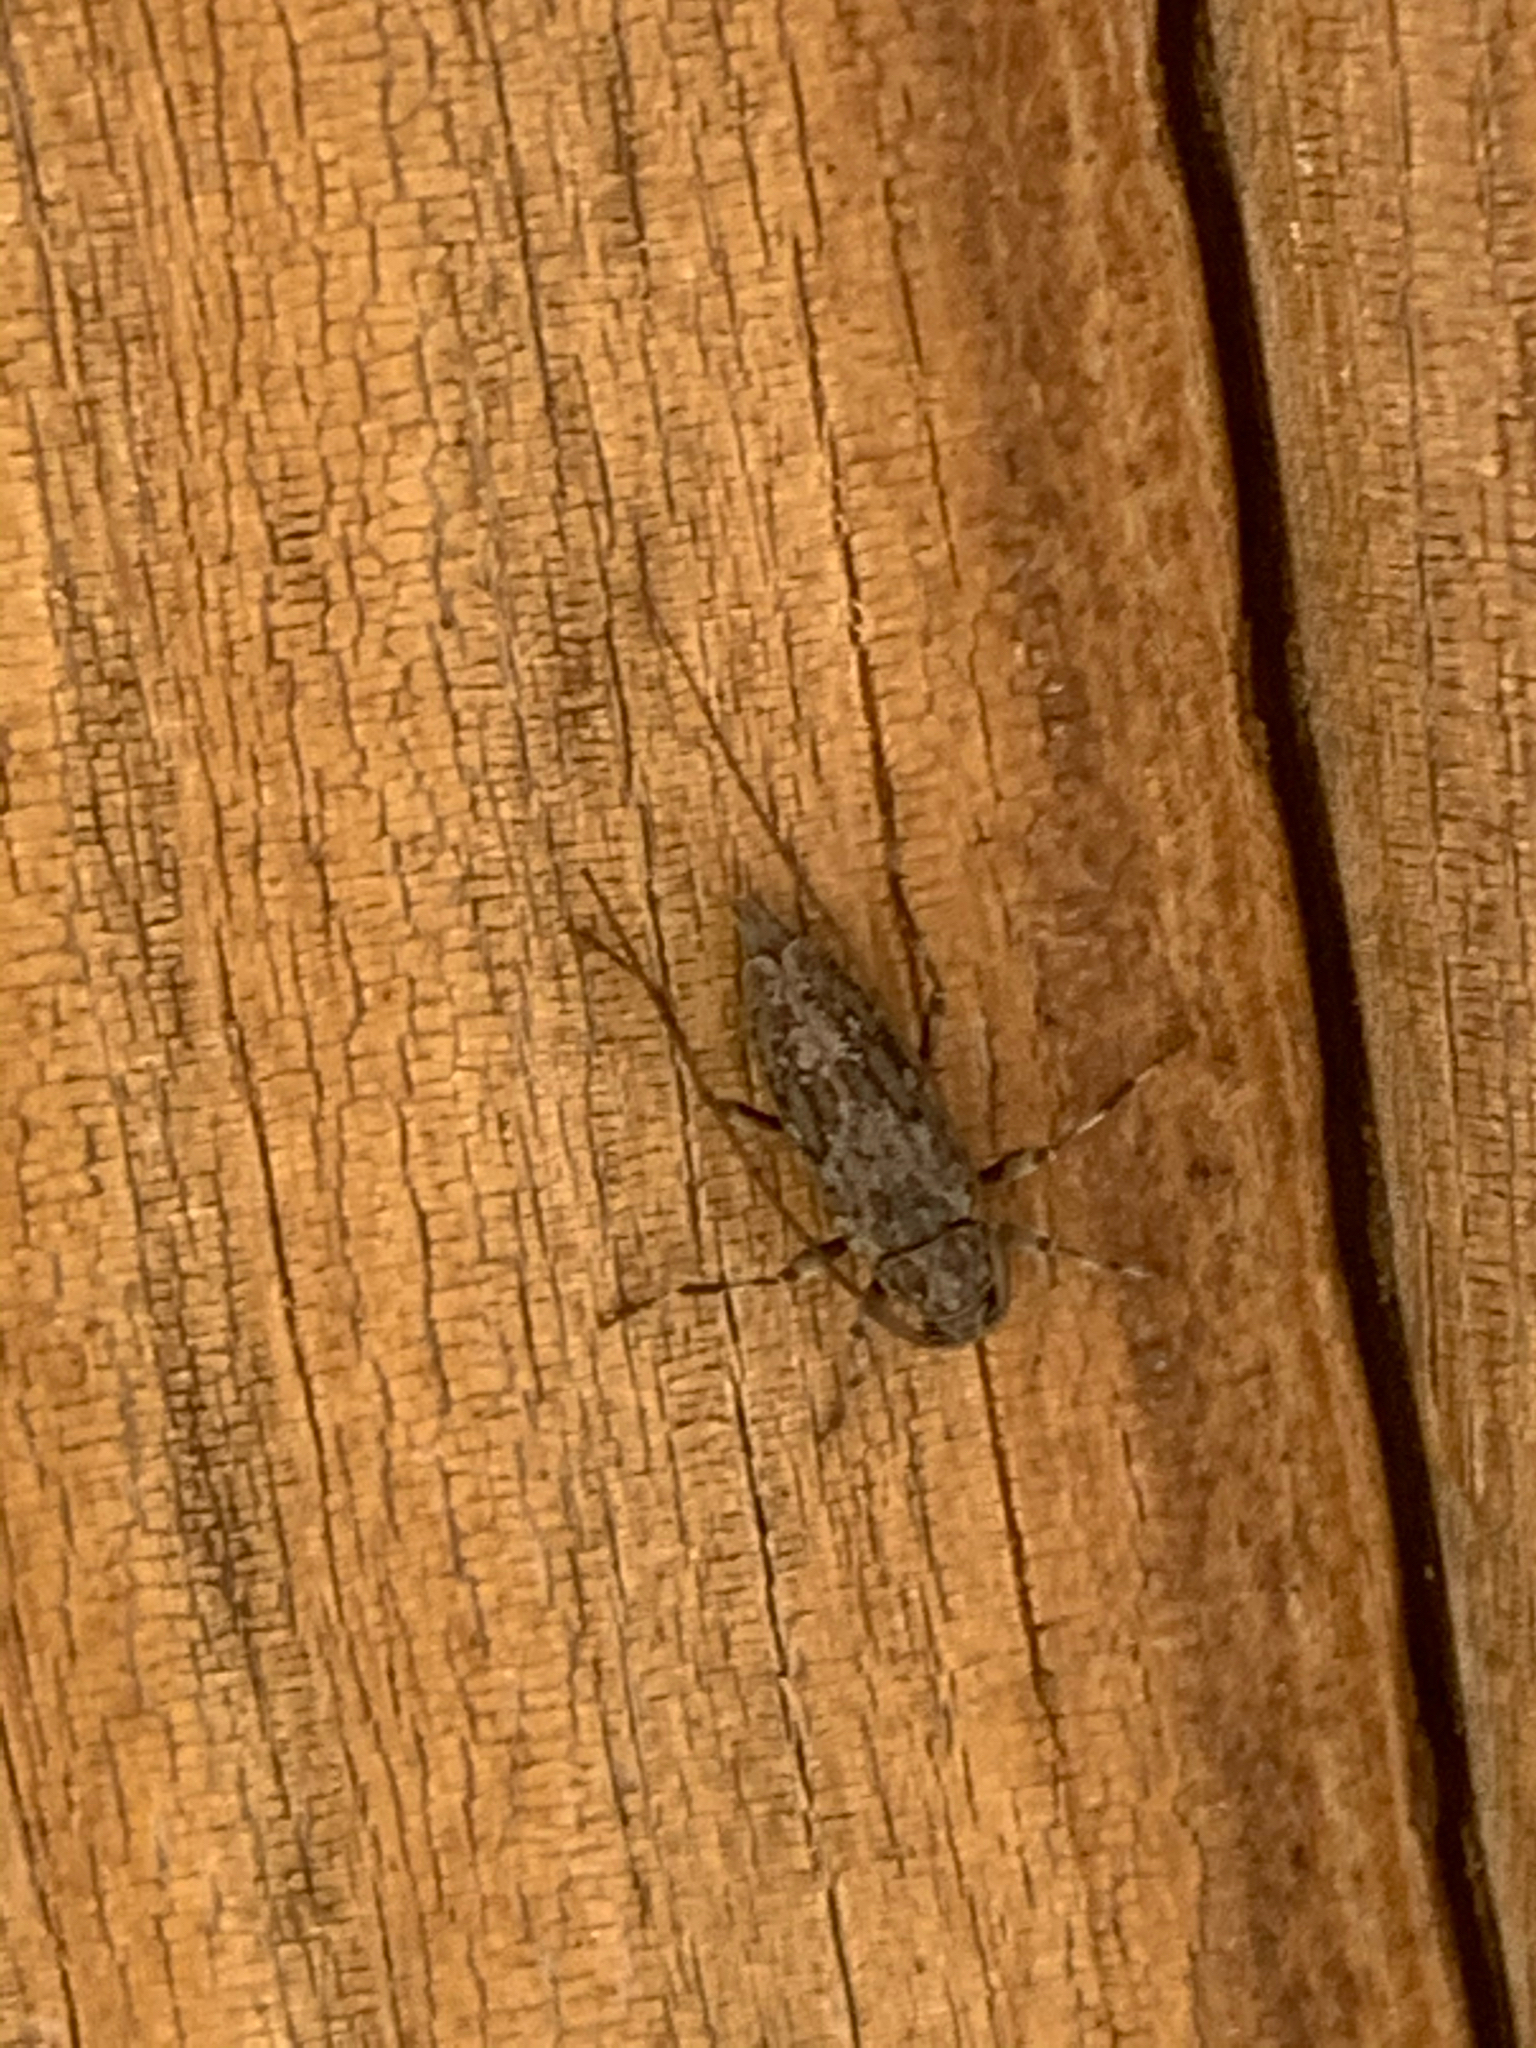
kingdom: Animalia
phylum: Arthropoda
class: Insecta
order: Coleoptera
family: Cerambycidae
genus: Lepturges
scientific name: Lepturges confluens
